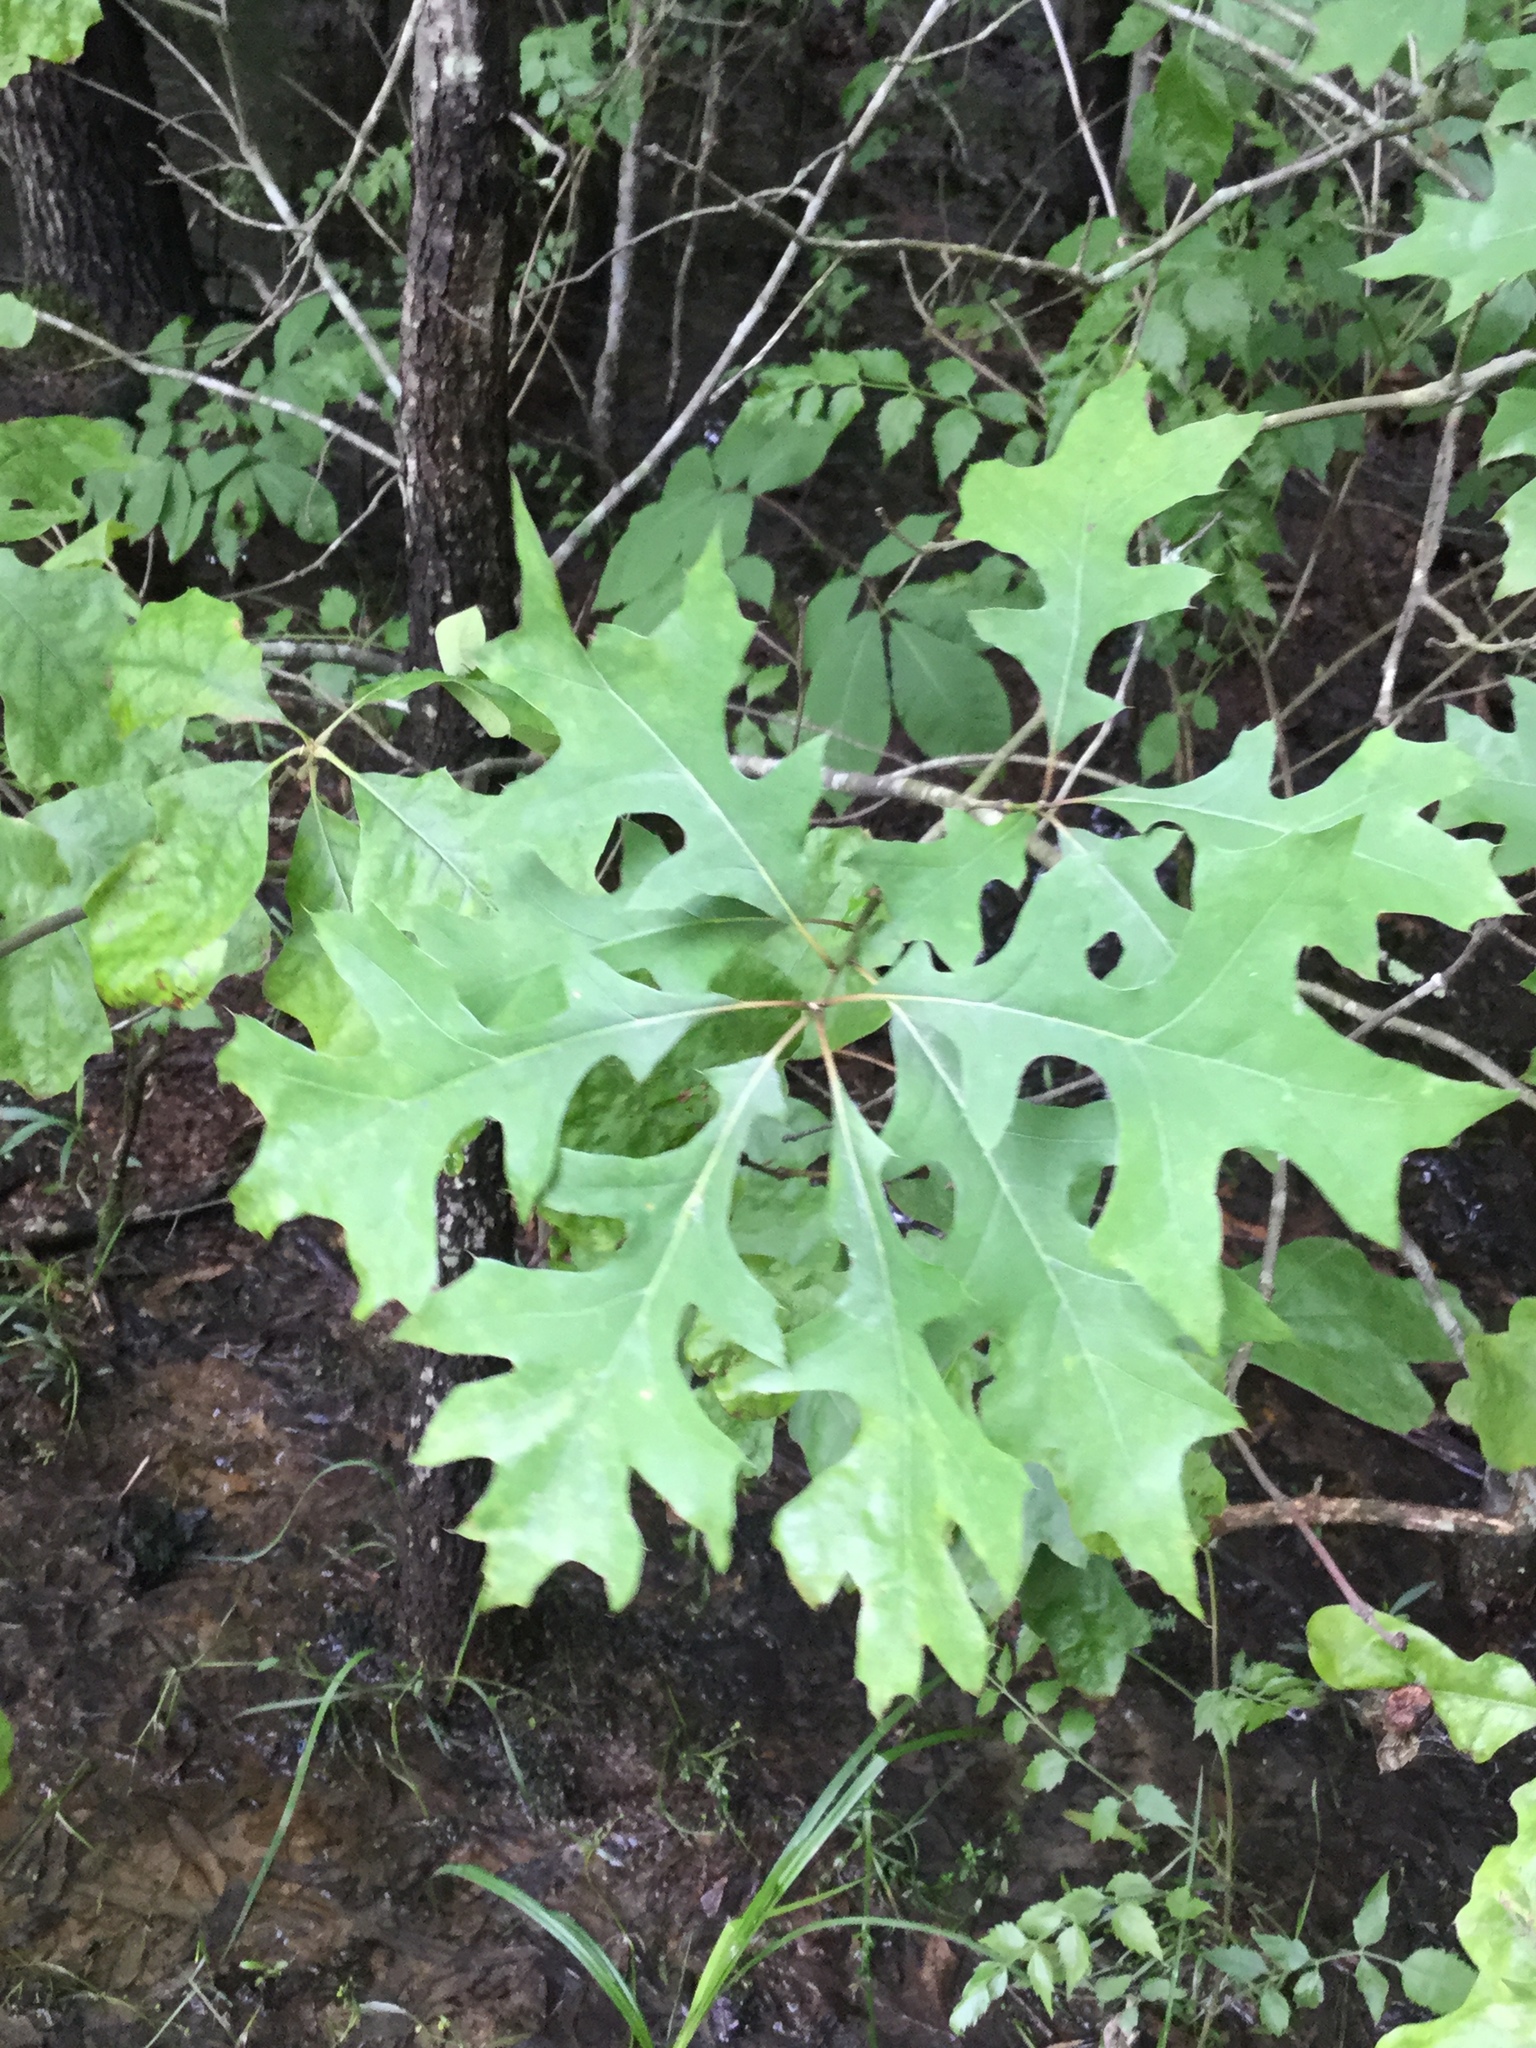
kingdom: Plantae
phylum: Tracheophyta
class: Magnoliopsida
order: Fagales
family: Fagaceae
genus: Quercus
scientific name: Quercus texana
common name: Nuttall oak
